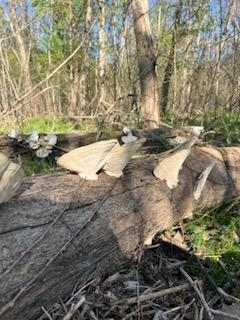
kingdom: Fungi
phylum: Basidiomycota
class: Agaricomycetes
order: Polyporales
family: Polyporaceae
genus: Trametes
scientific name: Trametes
